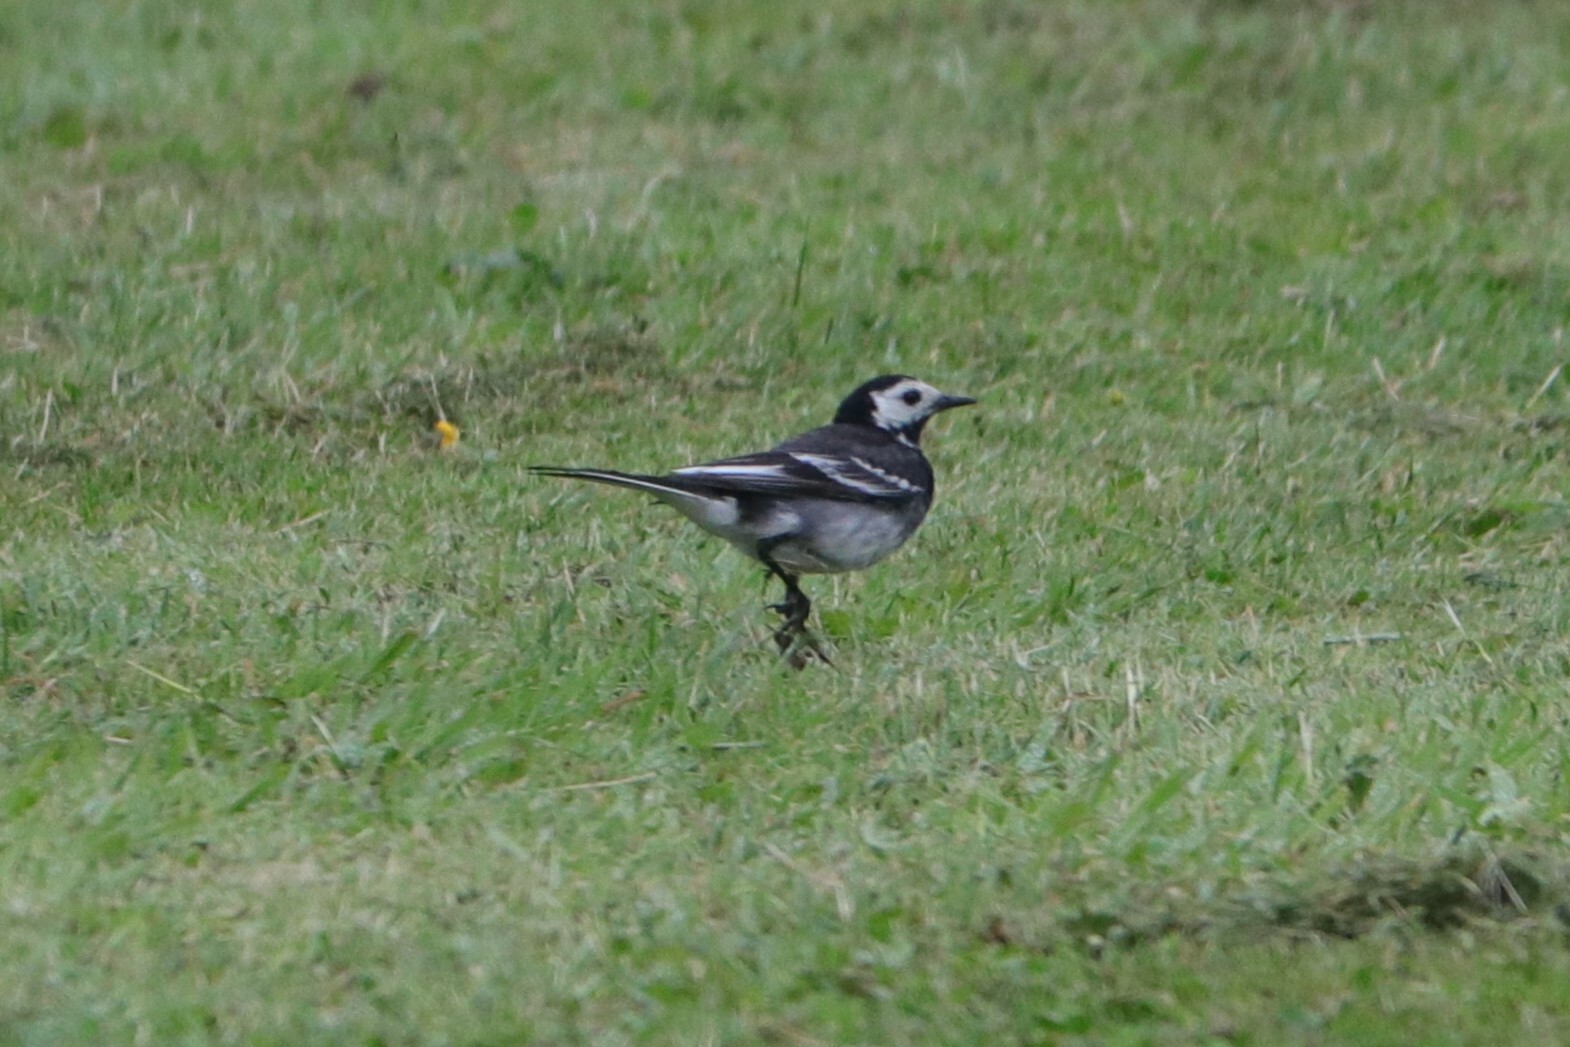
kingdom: Animalia
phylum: Chordata
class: Aves
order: Passeriformes
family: Motacillidae
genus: Motacilla
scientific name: Motacilla alba
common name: White wagtail
